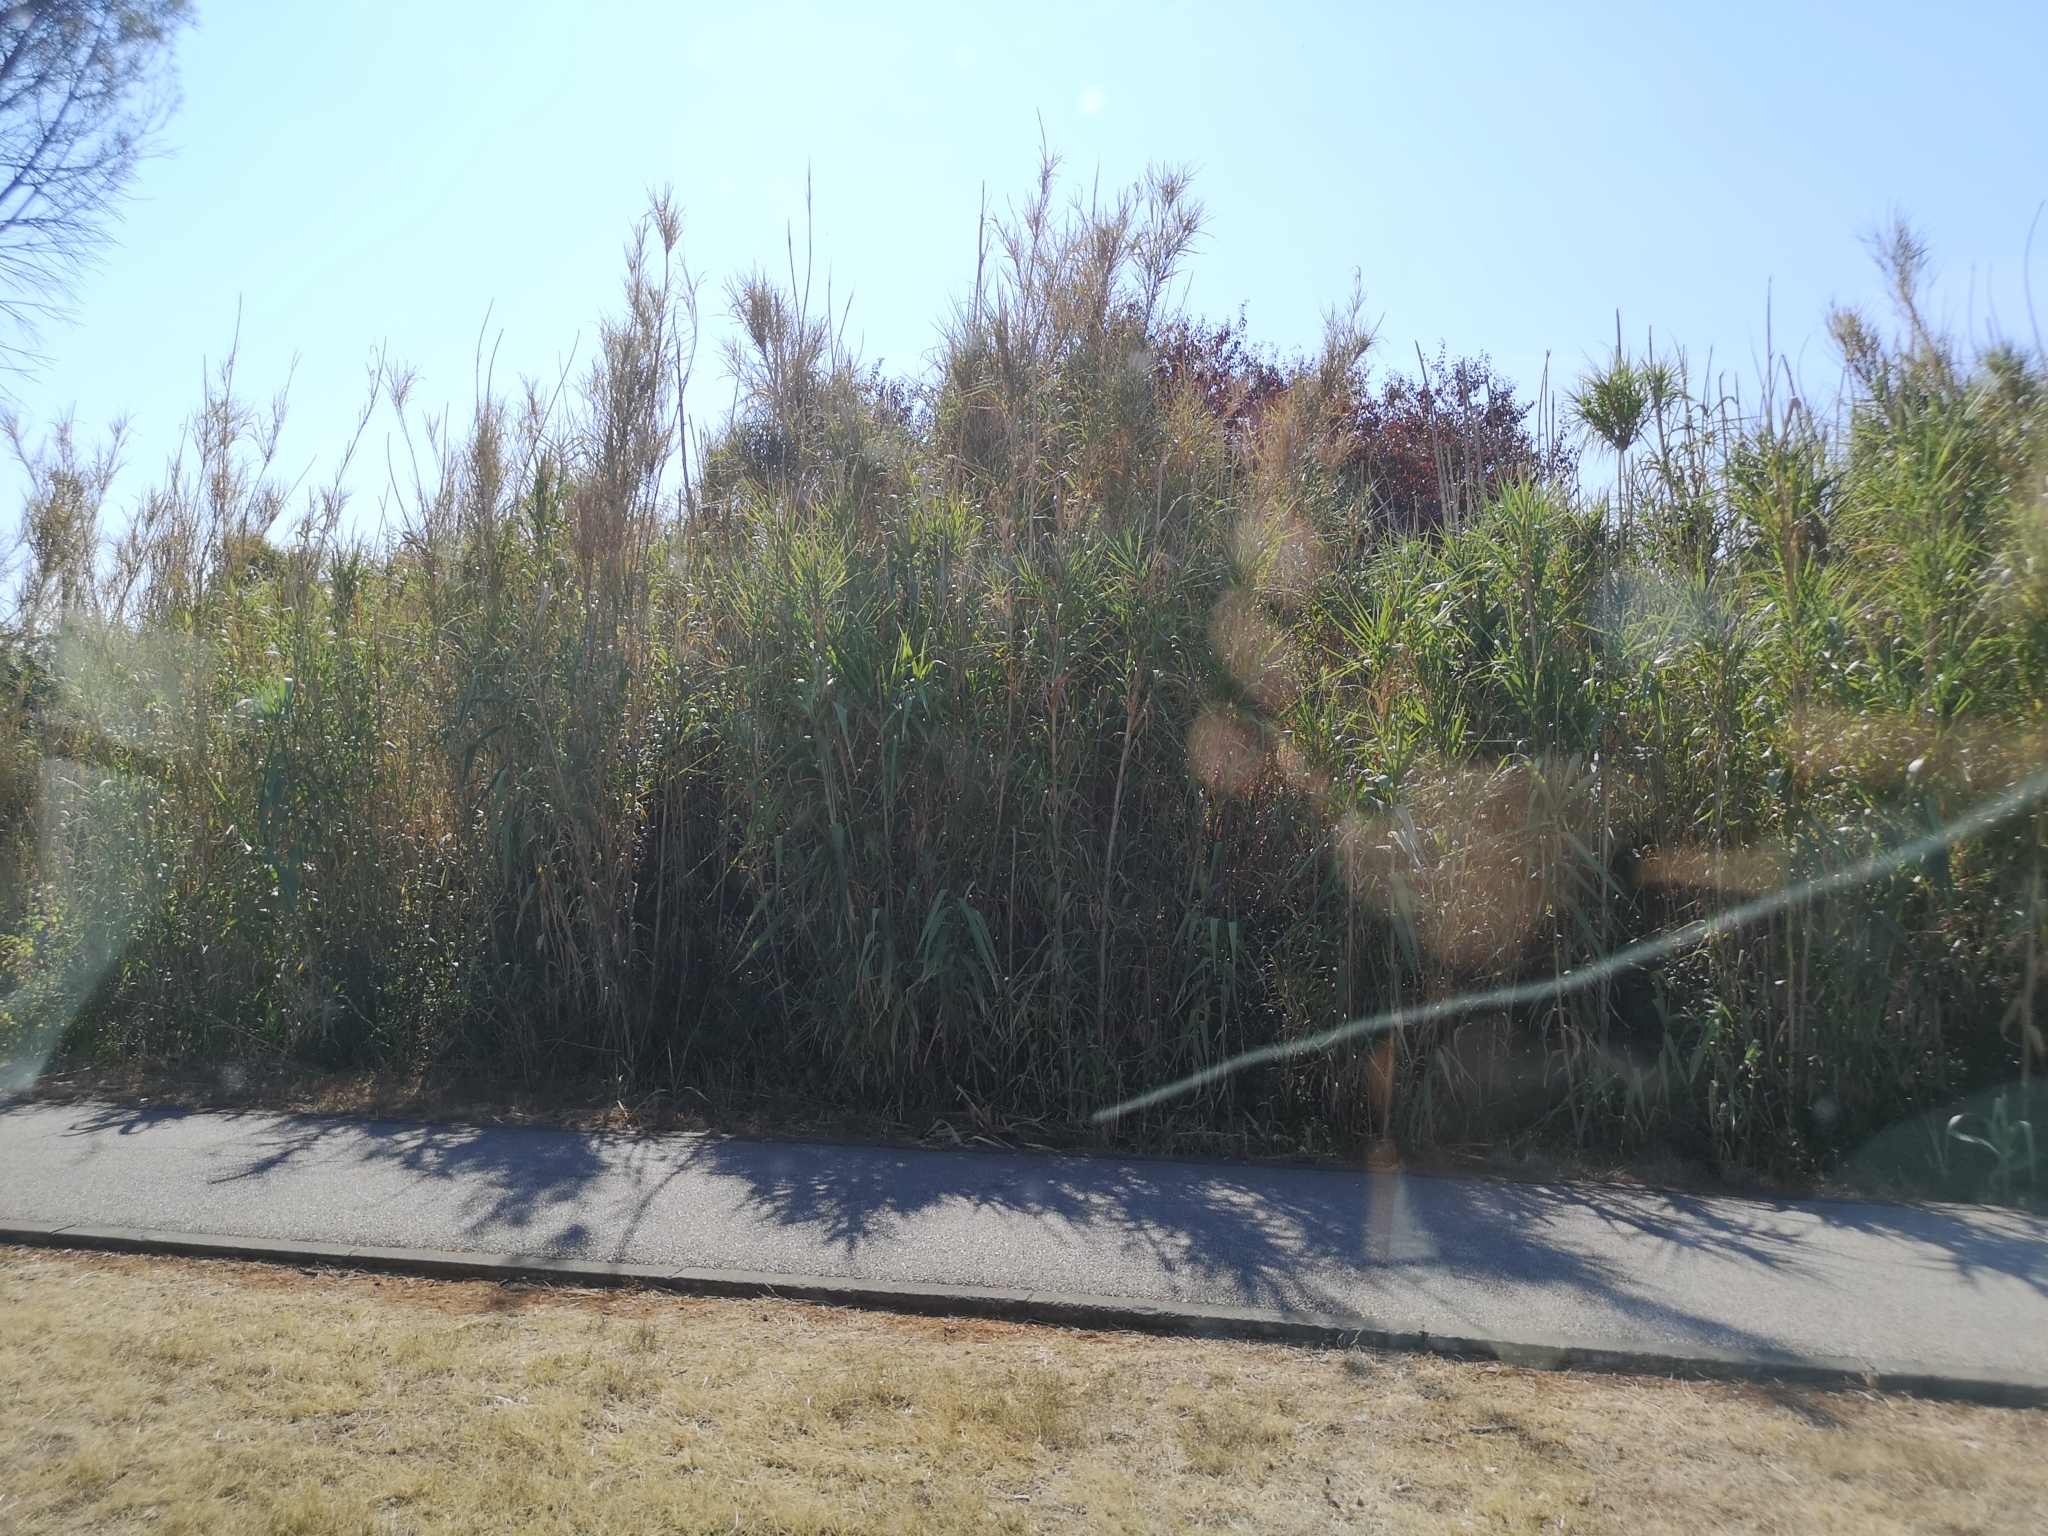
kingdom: Plantae
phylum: Tracheophyta
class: Liliopsida
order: Poales
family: Poaceae
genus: Arundo
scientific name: Arundo donax
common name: Giant reed
